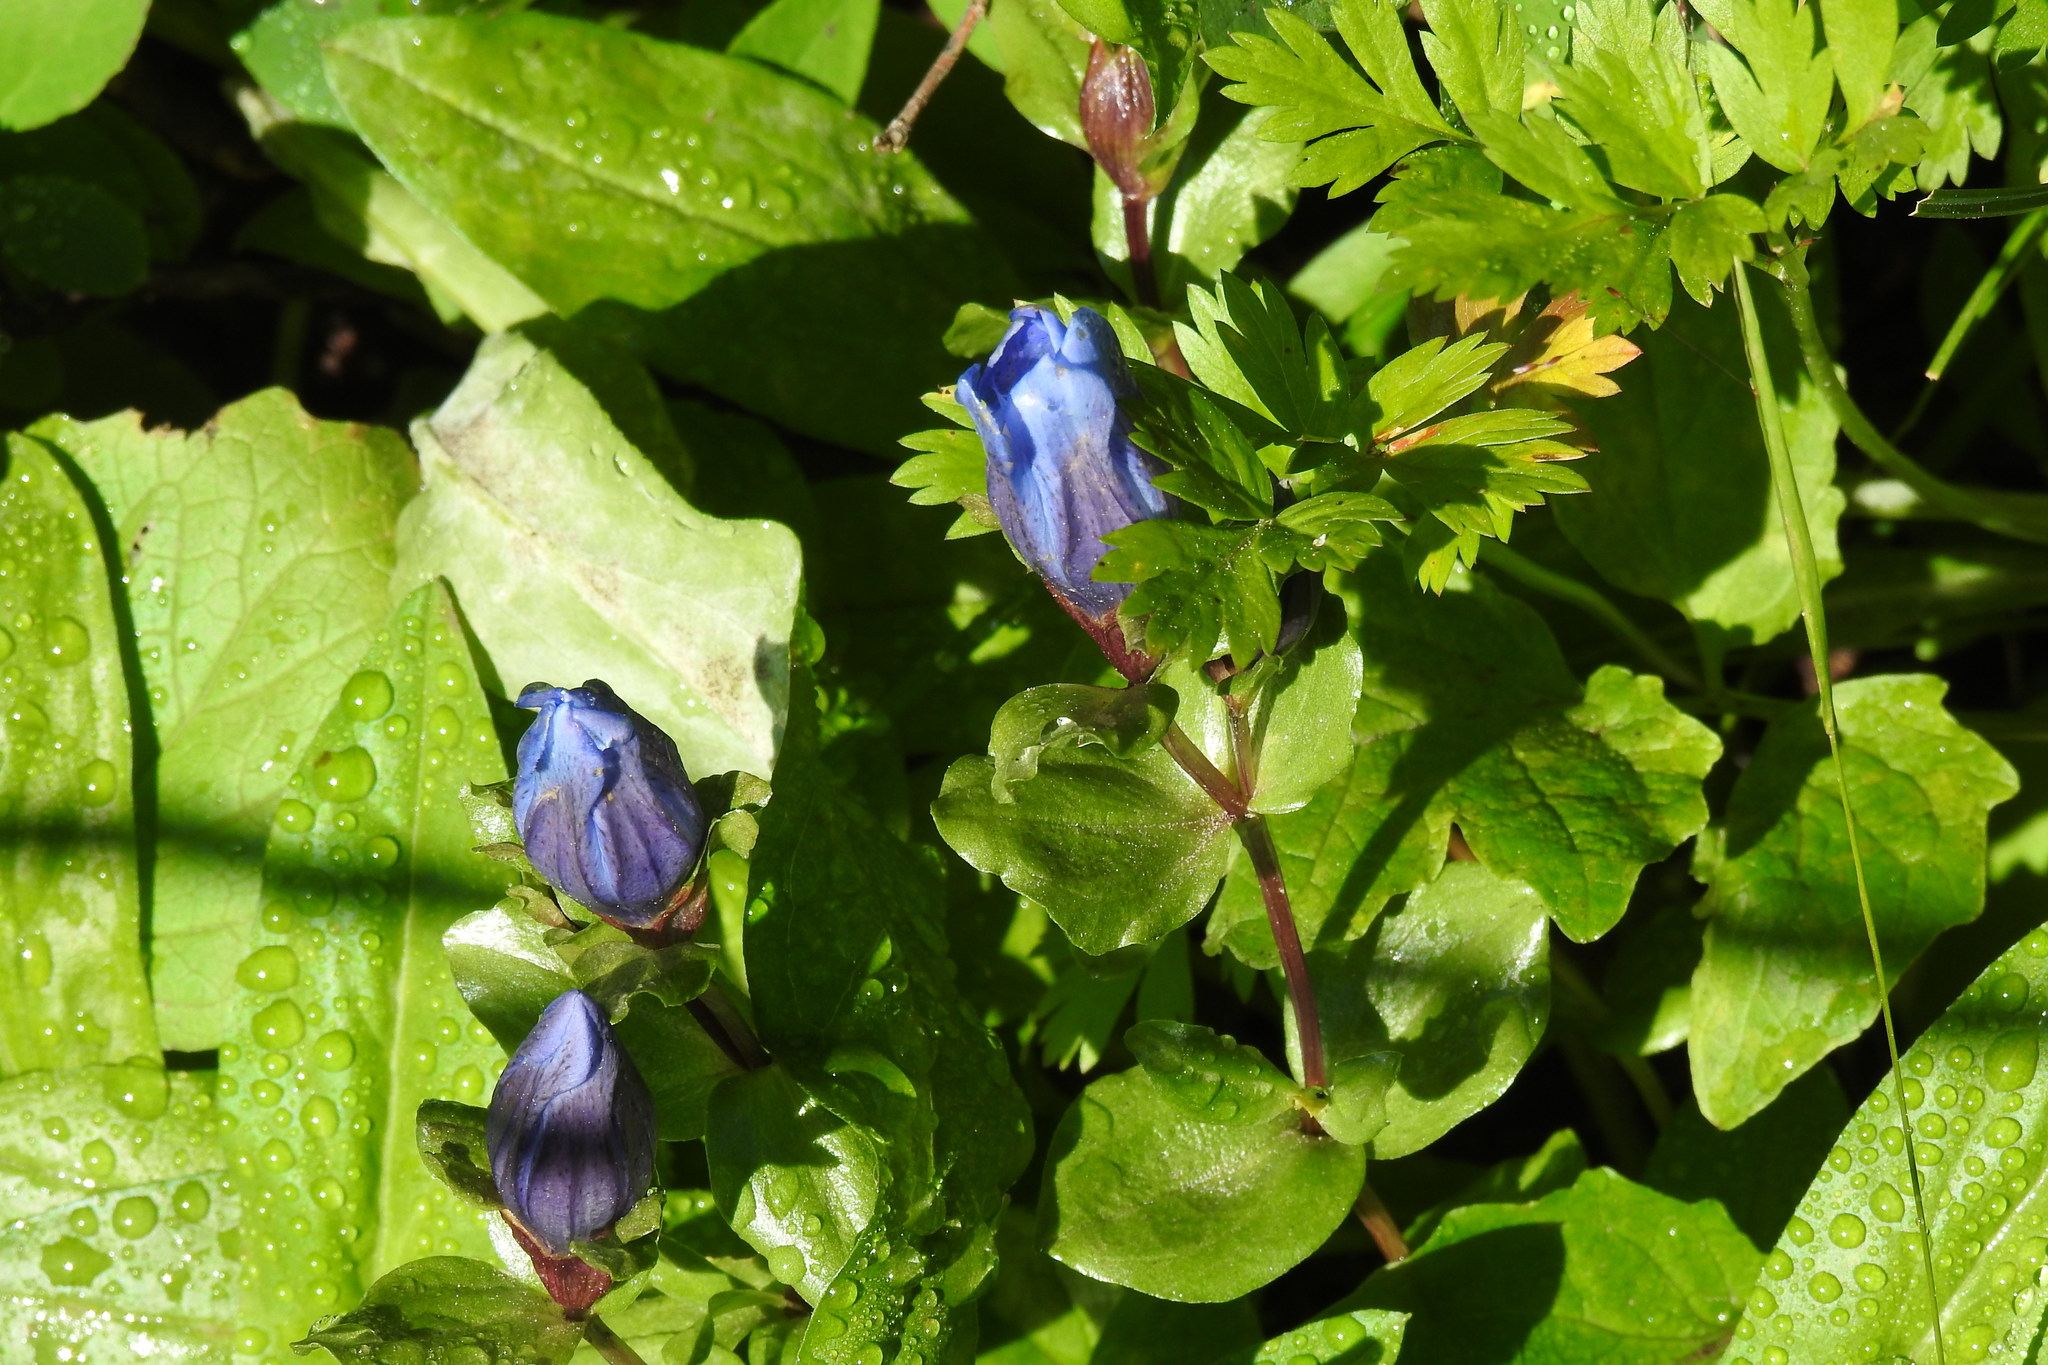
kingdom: Plantae
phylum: Tracheophyta
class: Magnoliopsida
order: Gentianales
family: Gentianaceae
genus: Gentiana
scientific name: Gentiana calycosa
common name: Rainier pleated gentian
